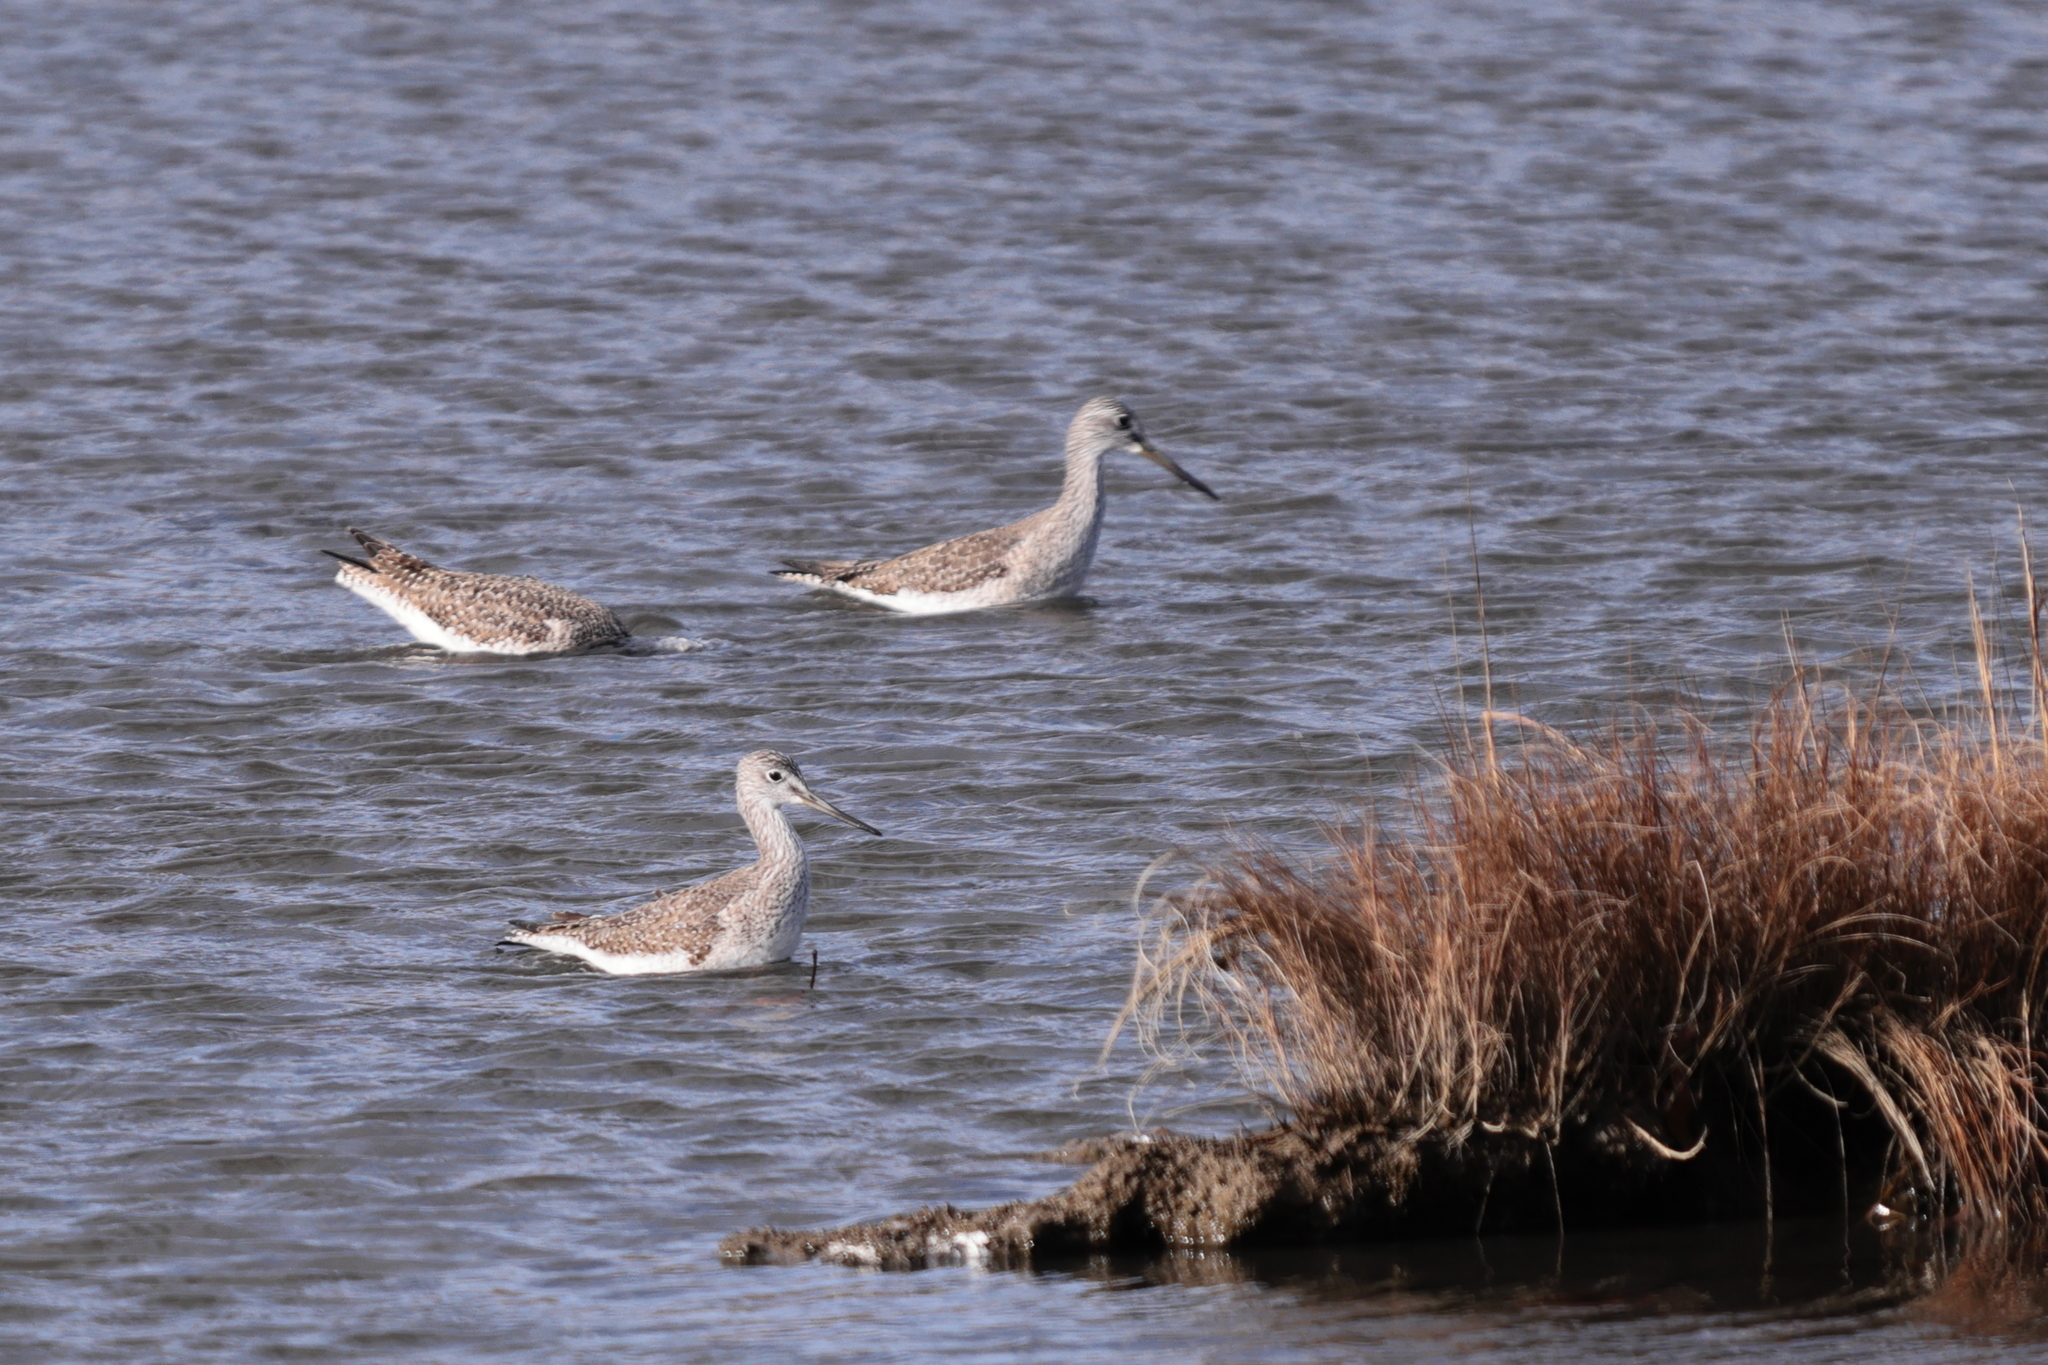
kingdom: Animalia
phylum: Chordata
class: Aves
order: Charadriiformes
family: Scolopacidae
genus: Tringa
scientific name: Tringa melanoleuca
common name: Greater yellowlegs
